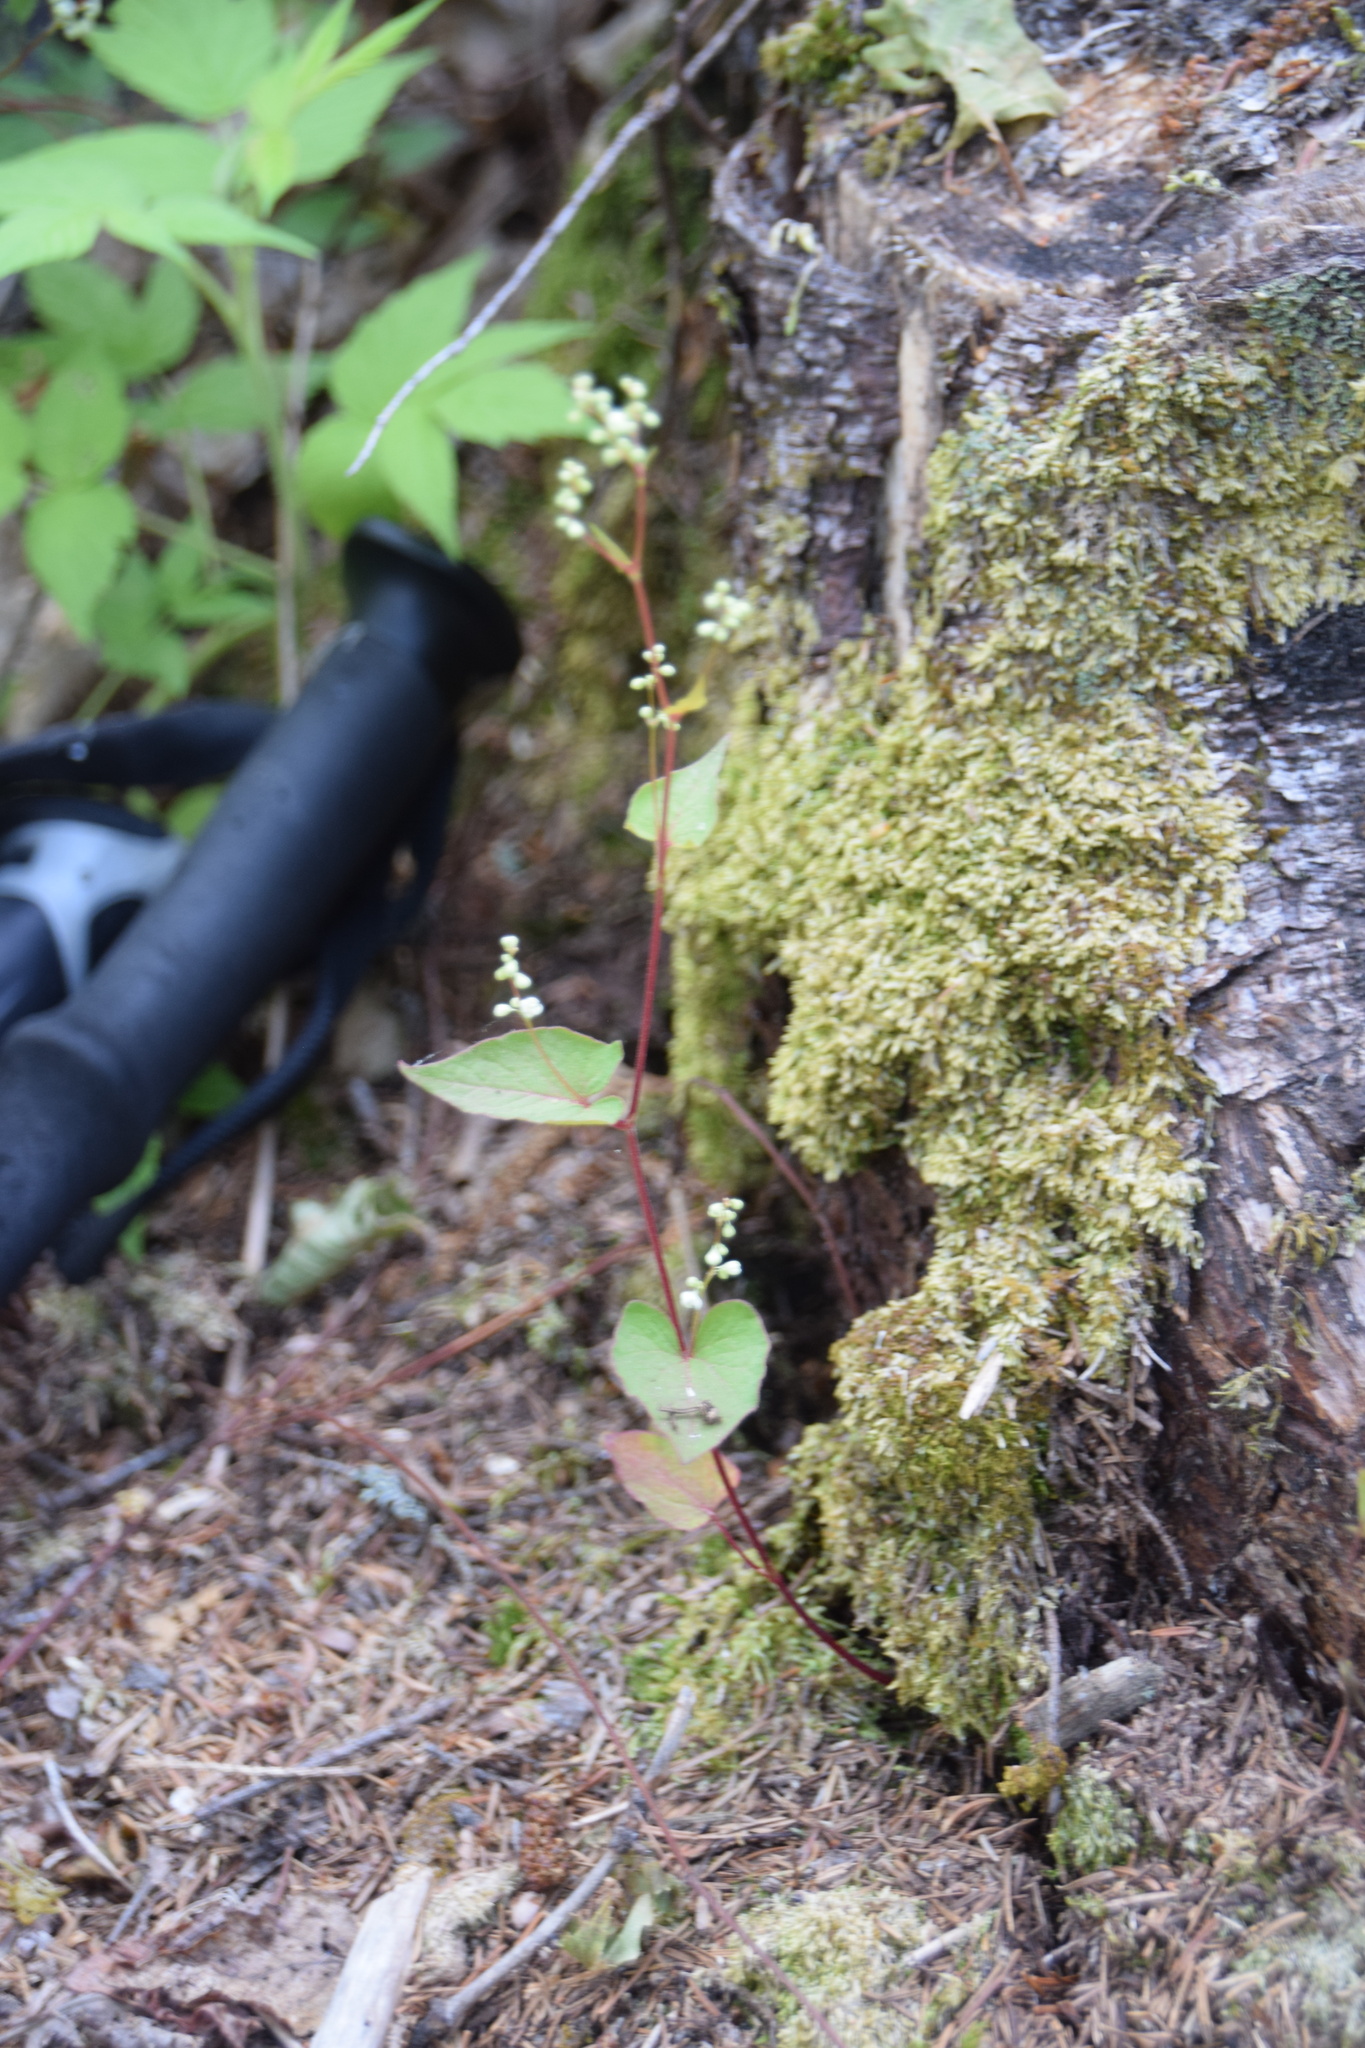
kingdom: Plantae
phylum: Tracheophyta
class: Magnoliopsida
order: Caryophyllales
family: Polygonaceae
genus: Parogonum
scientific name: Parogonum ciliinode
